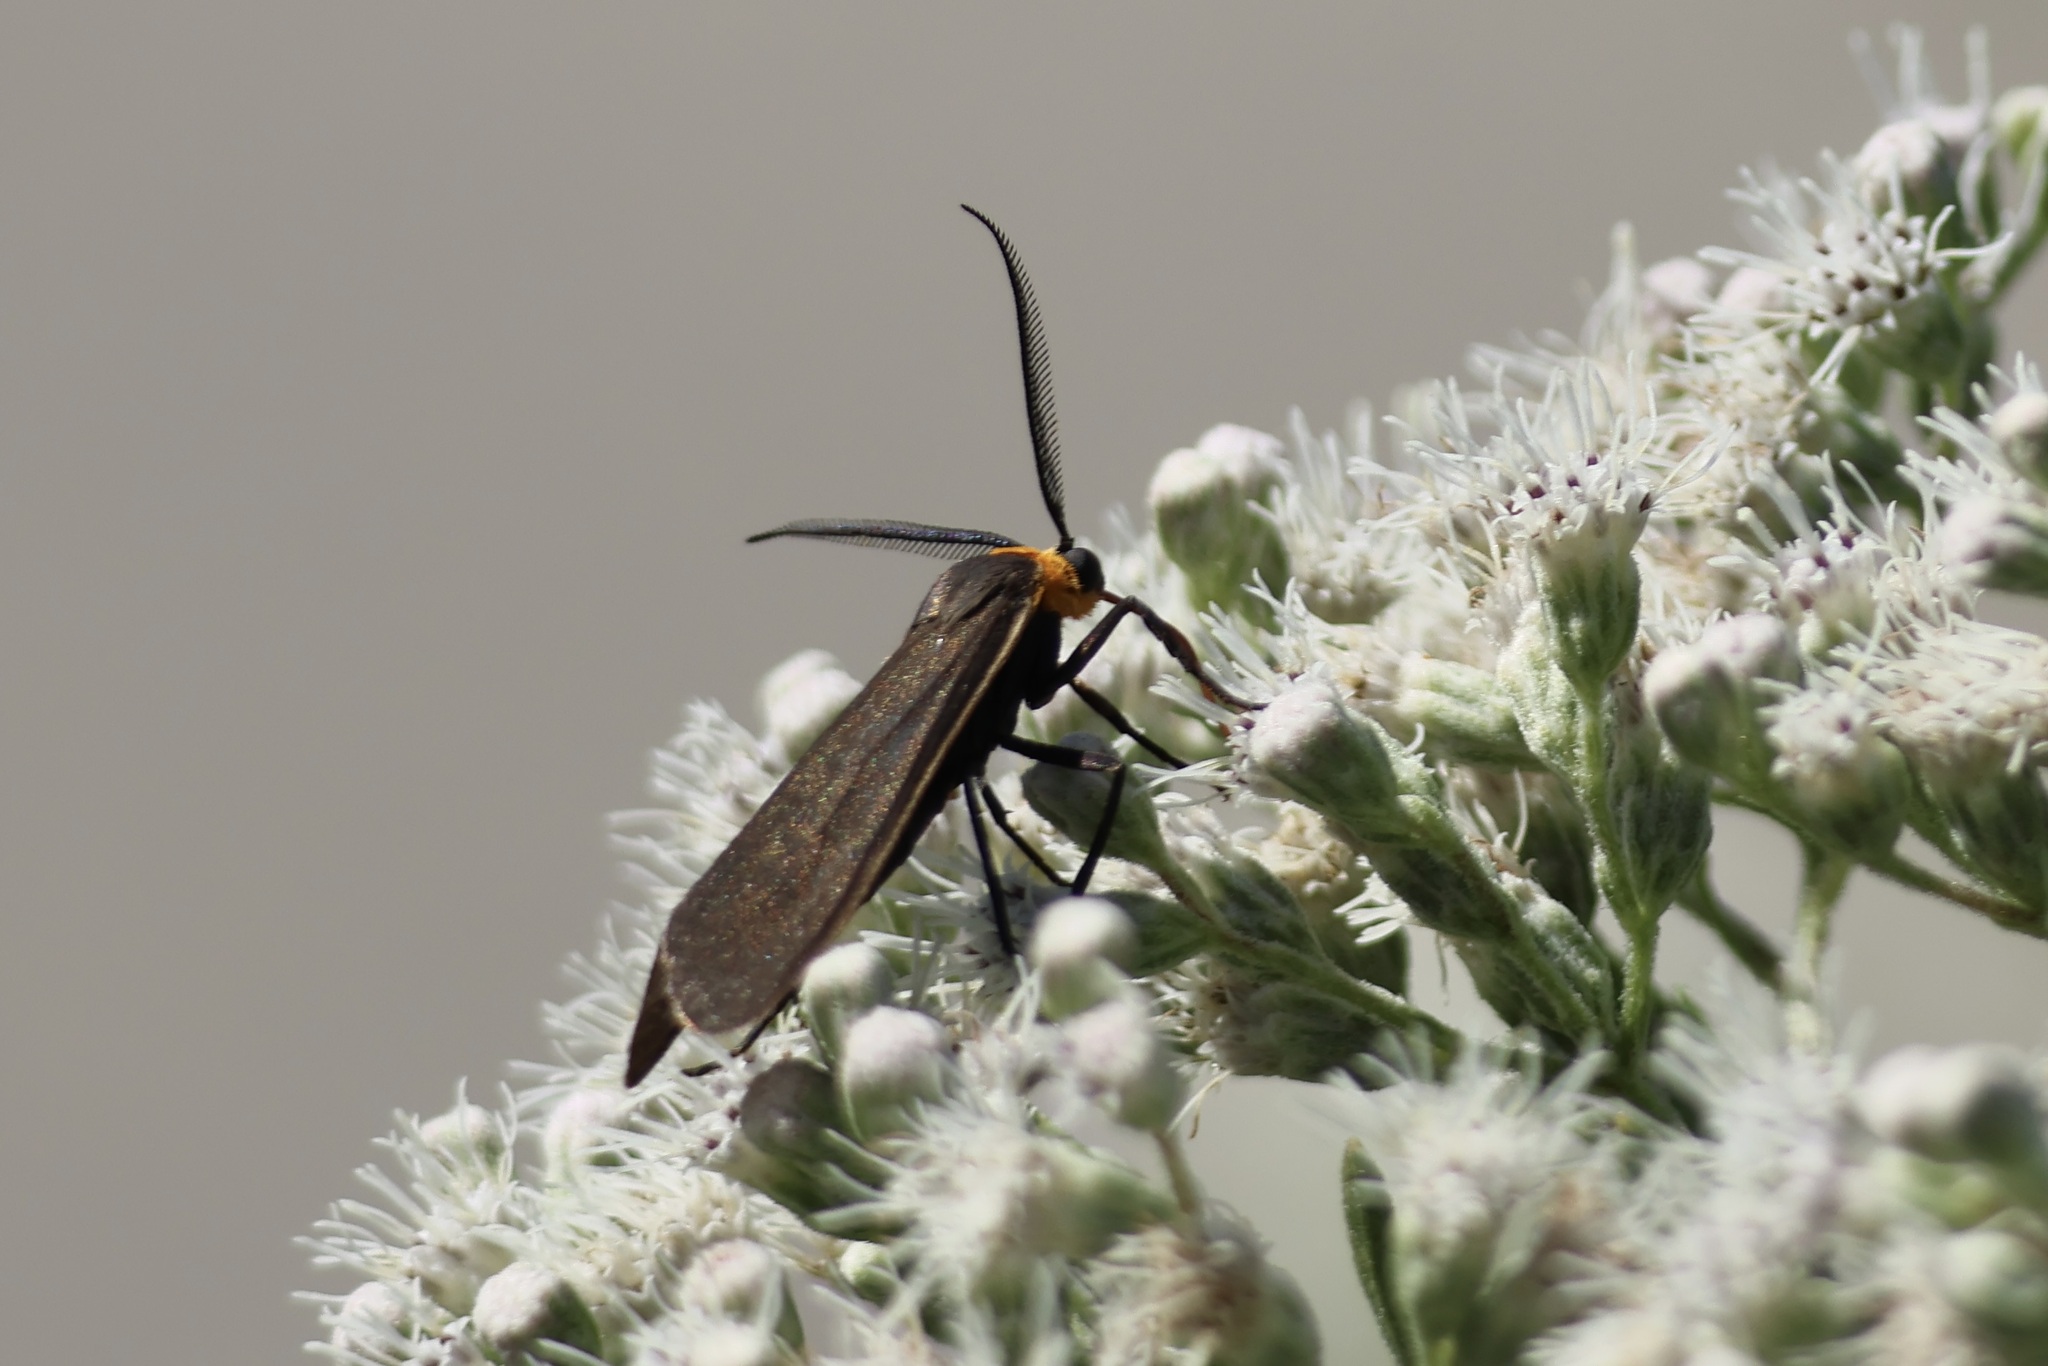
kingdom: Animalia
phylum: Arthropoda
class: Insecta
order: Lepidoptera
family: Erebidae
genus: Cisseps
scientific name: Cisseps fulvicollis
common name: Yellow-collared scape moth
